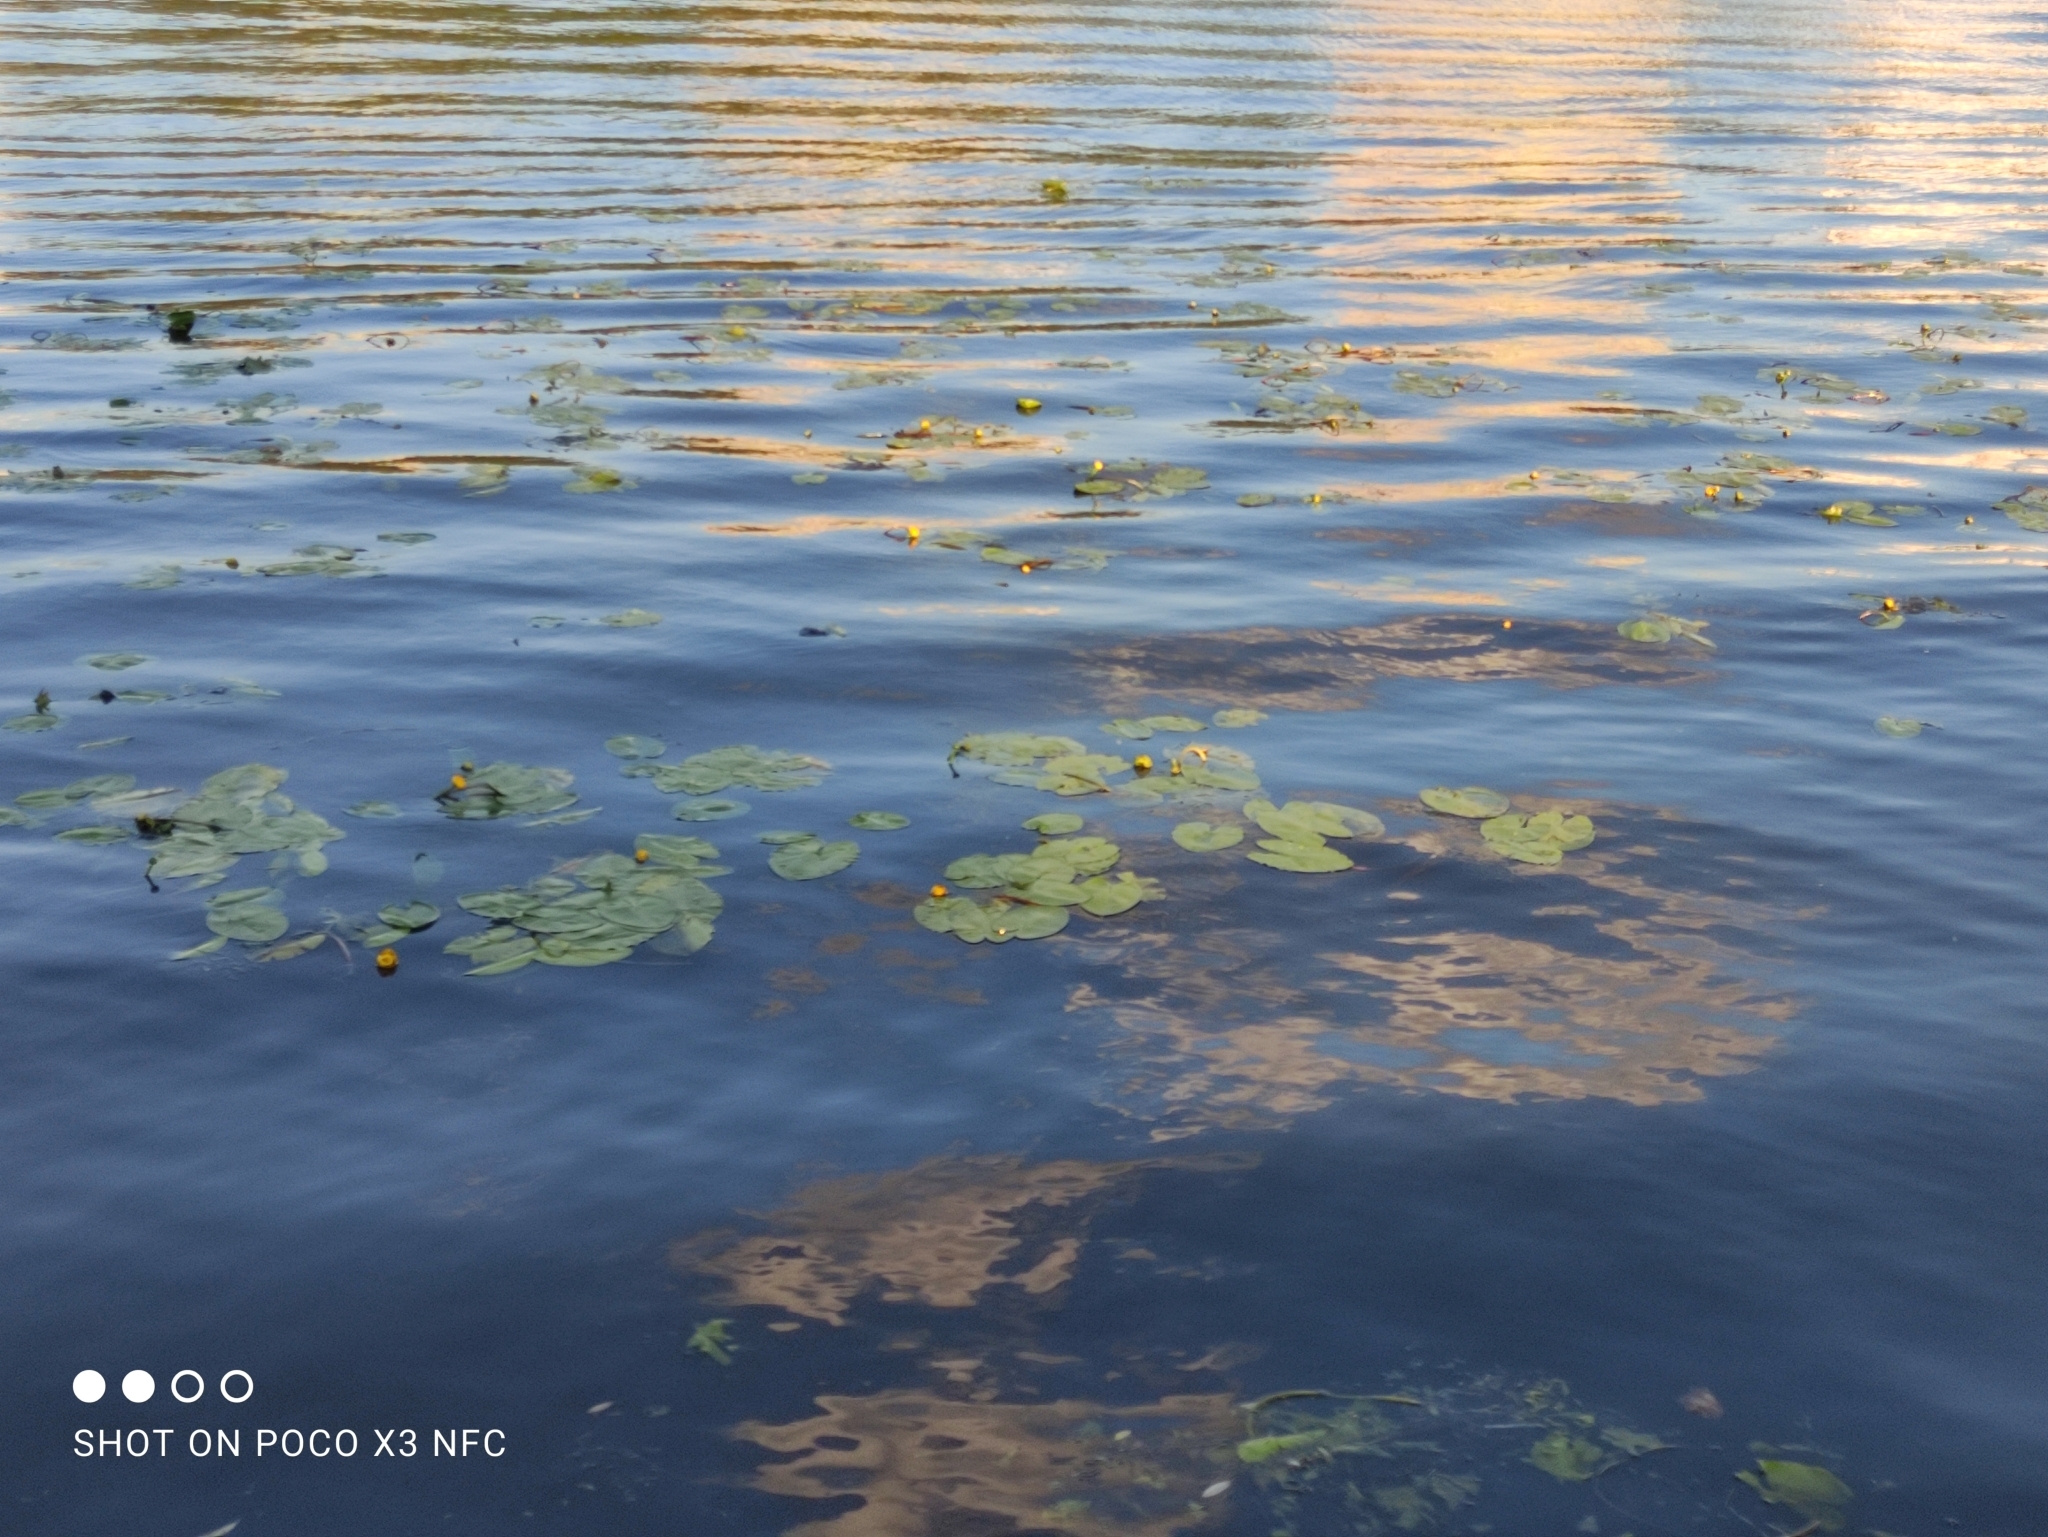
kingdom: Plantae
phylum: Tracheophyta
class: Magnoliopsida
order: Nymphaeales
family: Nymphaeaceae
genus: Nuphar
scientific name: Nuphar lutea
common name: Yellow water-lily
